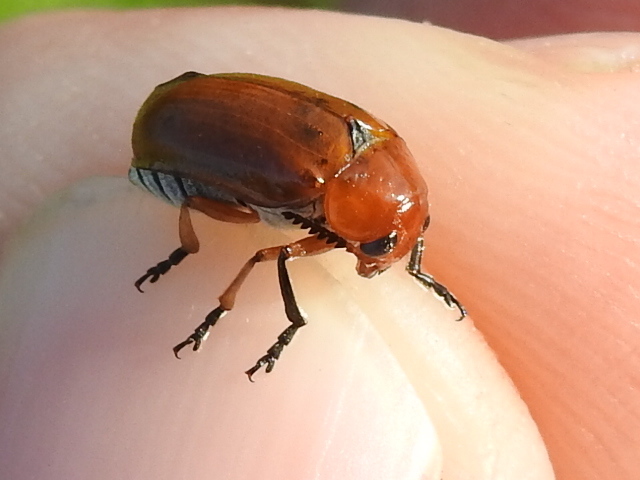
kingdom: Animalia
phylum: Arthropoda
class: Insecta
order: Coleoptera
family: Chrysomelidae
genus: Anomoea
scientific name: Anomoea laticlavia
